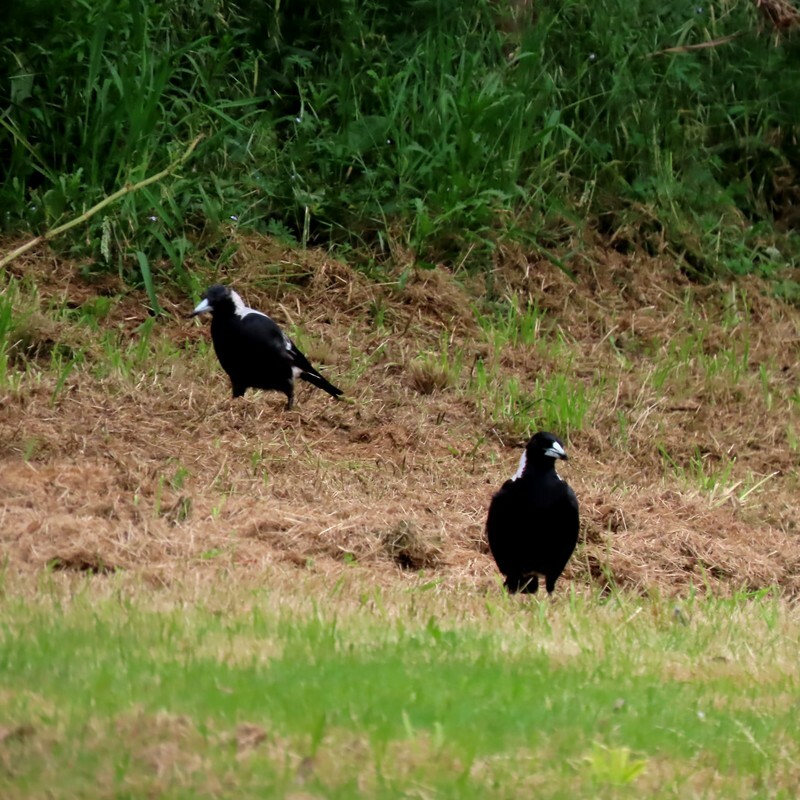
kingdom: Animalia
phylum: Chordata
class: Aves
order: Passeriformes
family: Cracticidae
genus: Gymnorhina
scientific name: Gymnorhina tibicen
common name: Australian magpie
